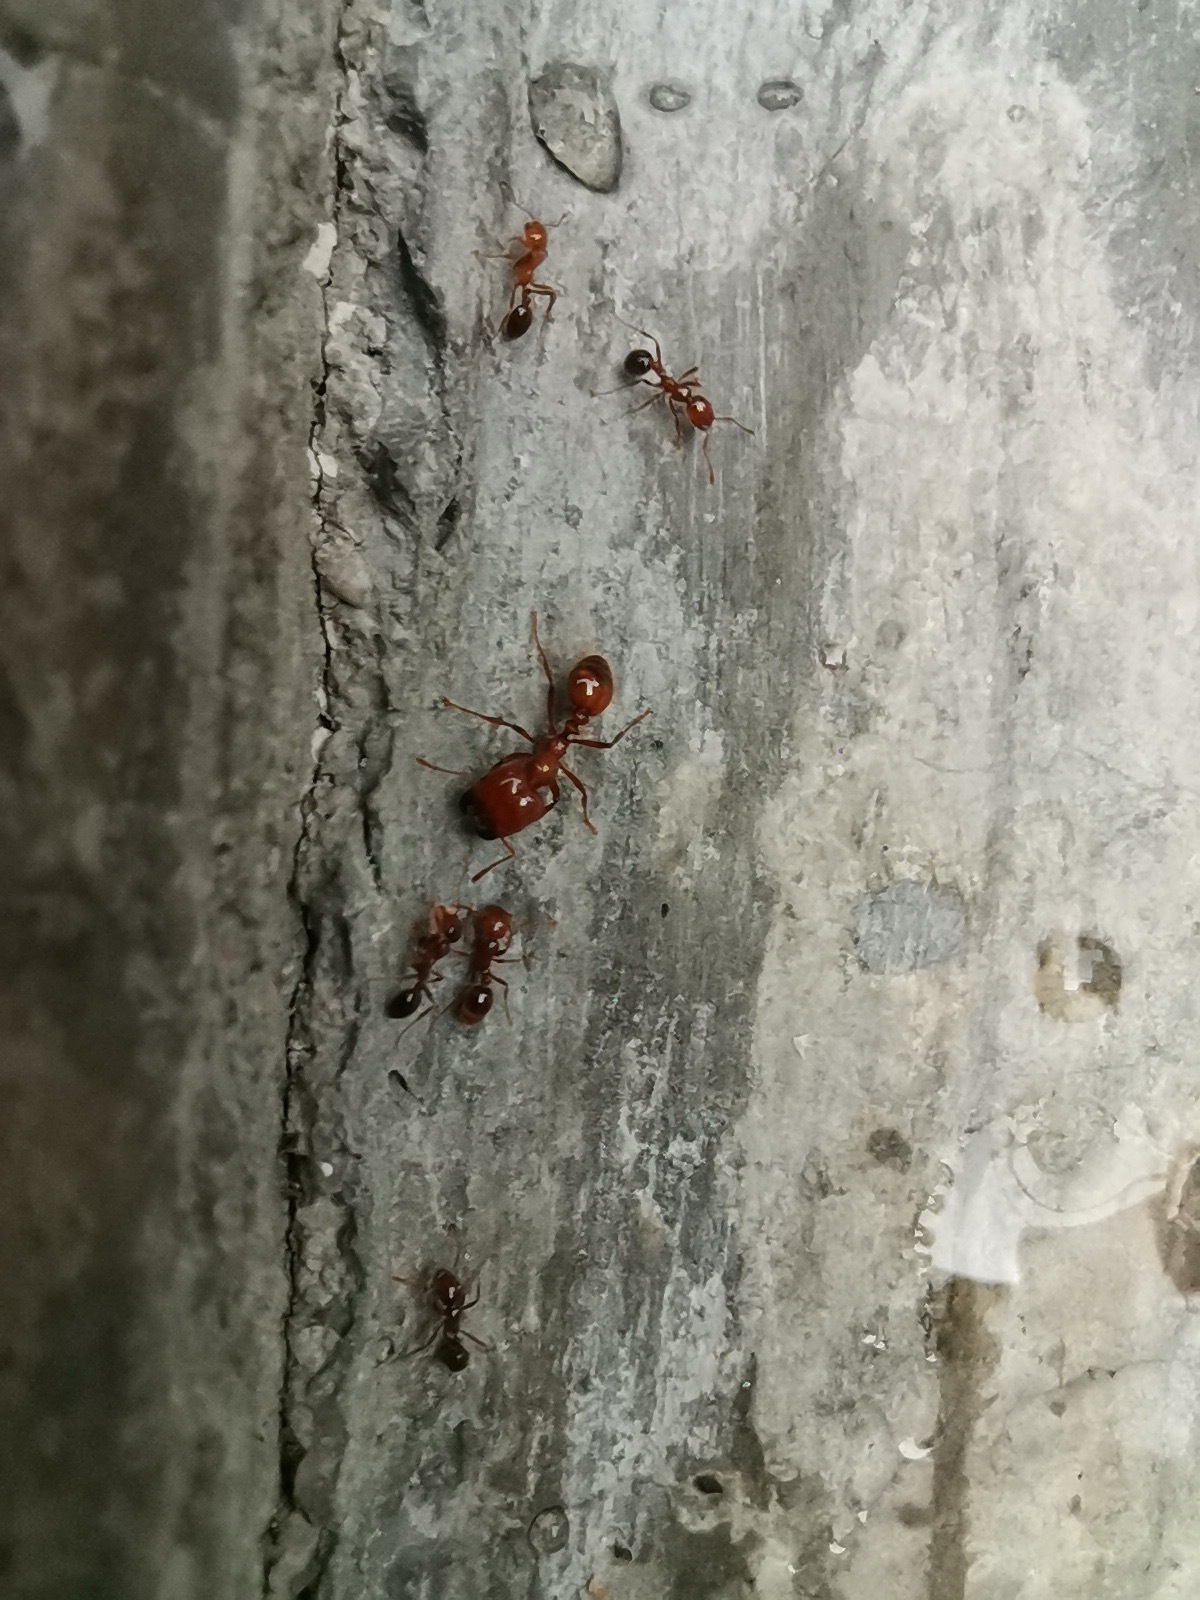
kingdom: Animalia
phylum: Arthropoda
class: Insecta
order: Hymenoptera
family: Formicidae
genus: Solenopsis
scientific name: Solenopsis geminata
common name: Tropical fire ant
